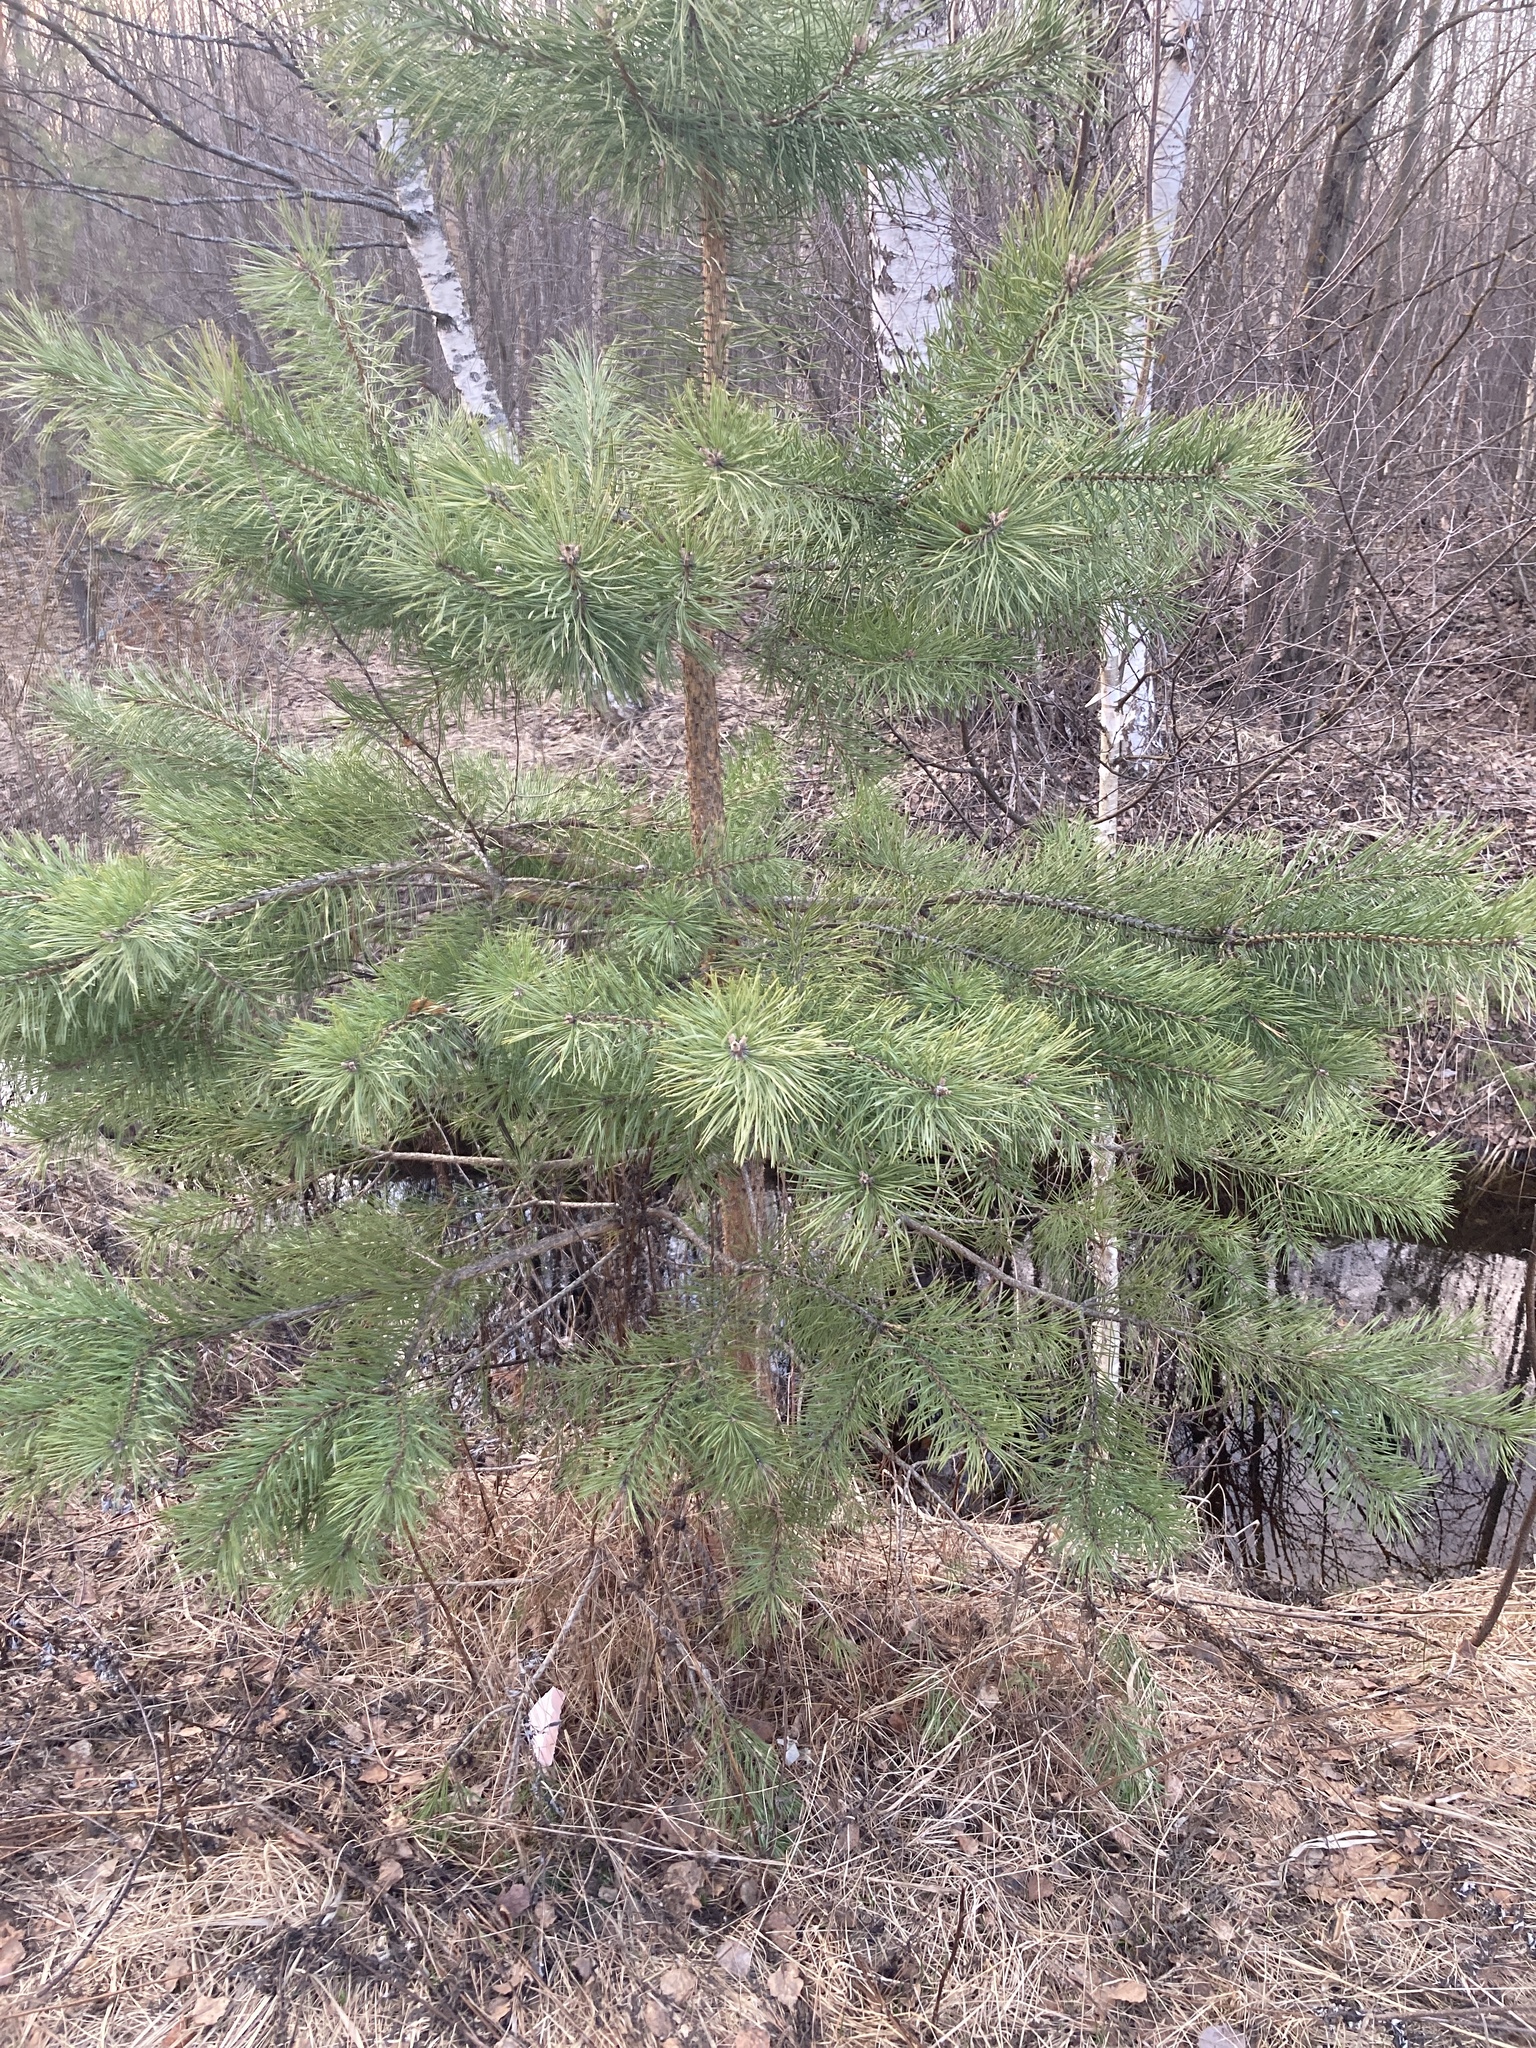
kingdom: Plantae
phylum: Tracheophyta
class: Pinopsida
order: Pinales
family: Pinaceae
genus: Pinus
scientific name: Pinus sylvestris
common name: Scots pine
